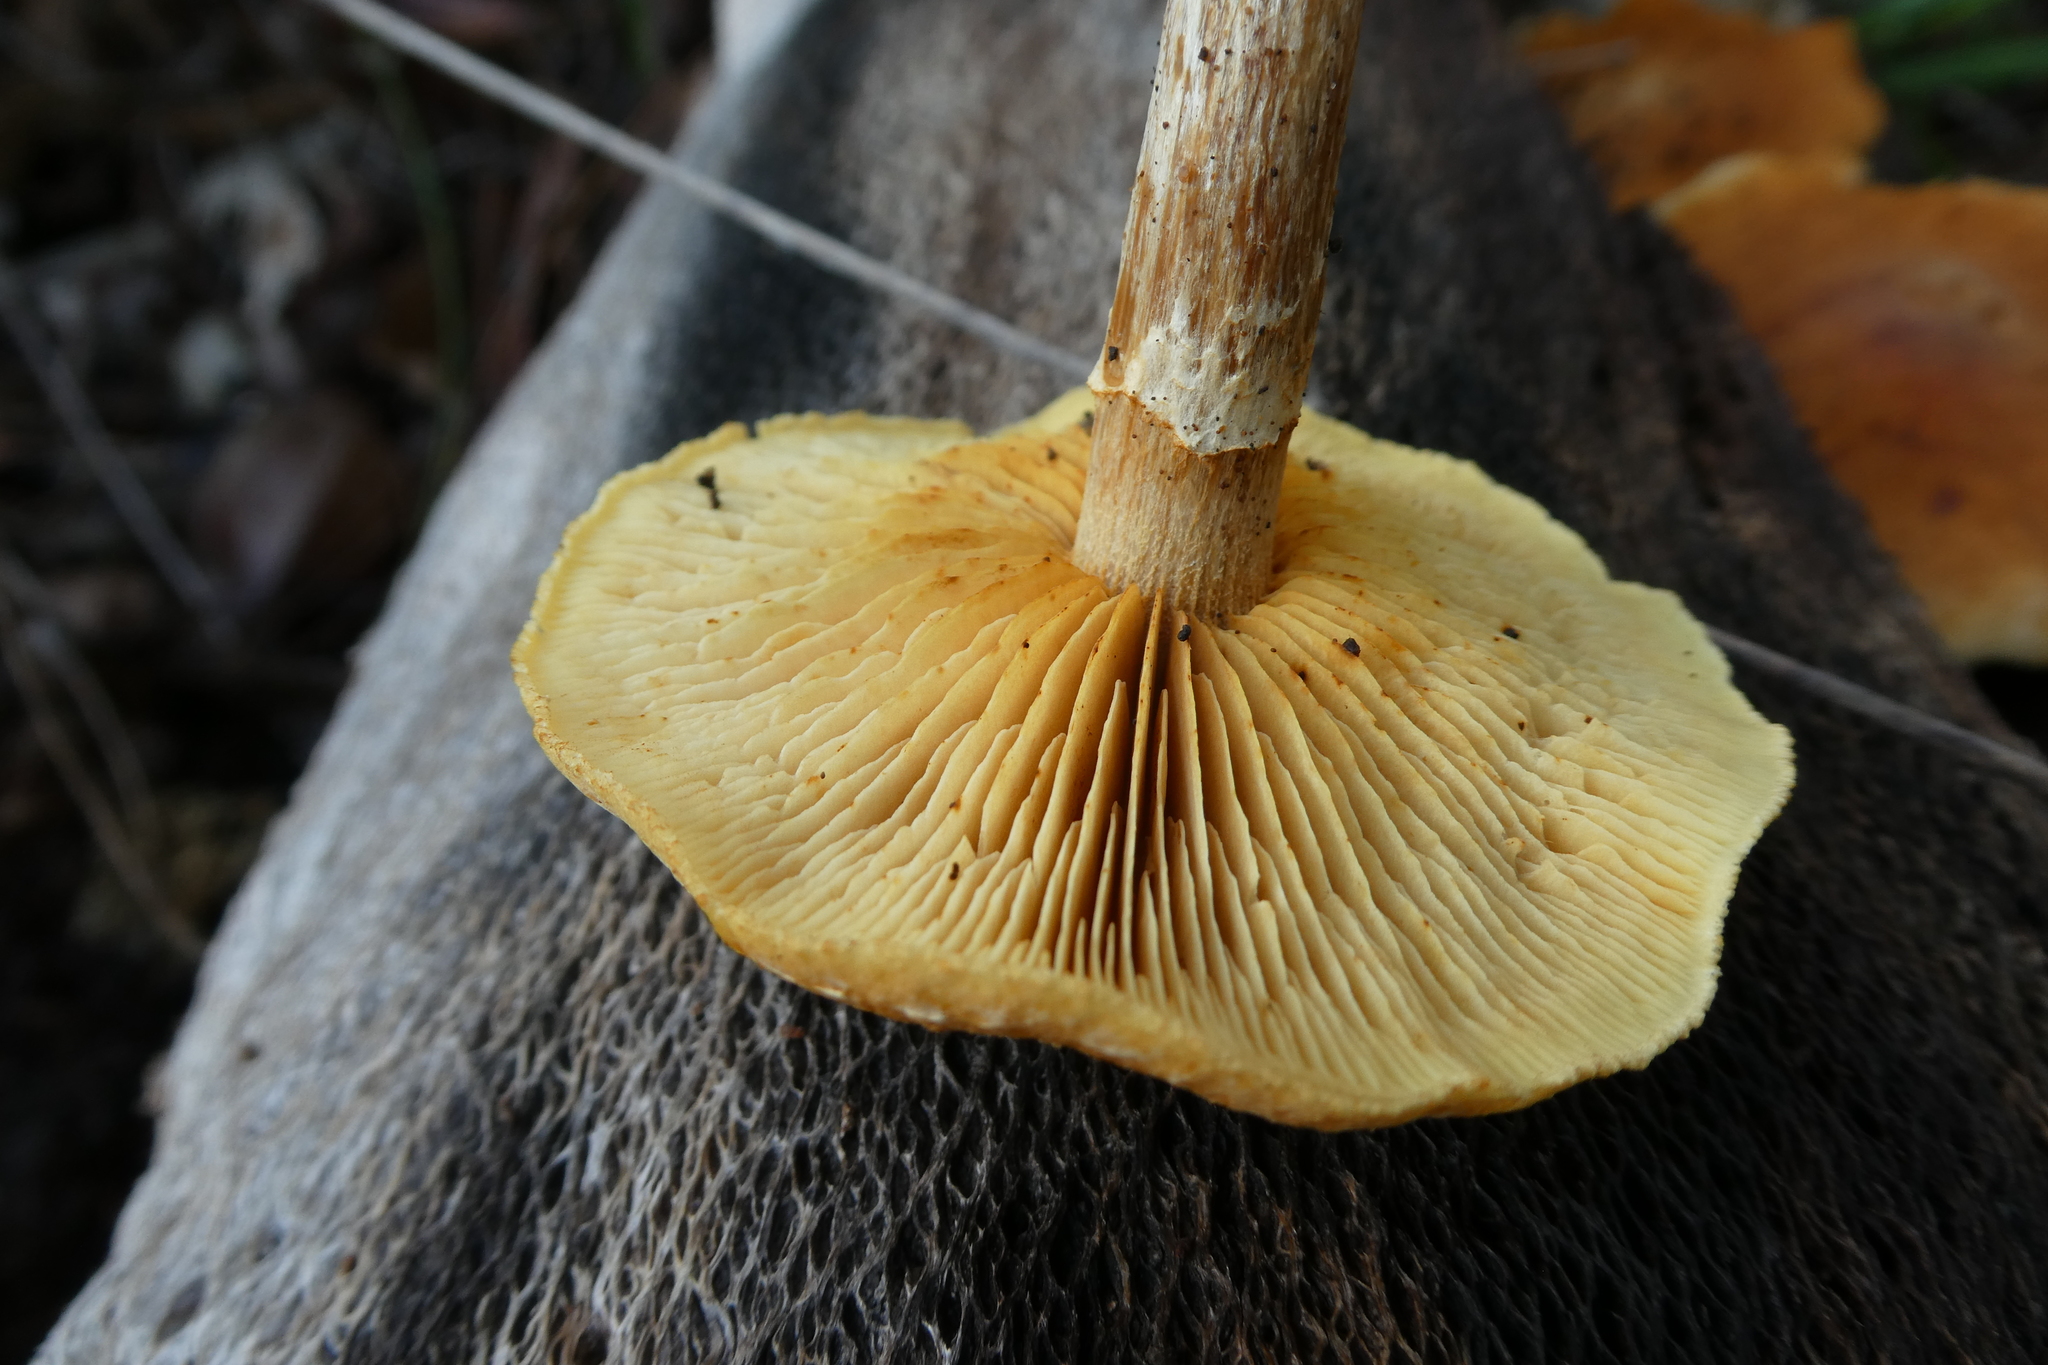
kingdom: Fungi
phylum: Basidiomycota
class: Agaricomycetes
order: Agaricales
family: Hymenogastraceae
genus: Gymnopilus
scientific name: Gymnopilus allantopus
